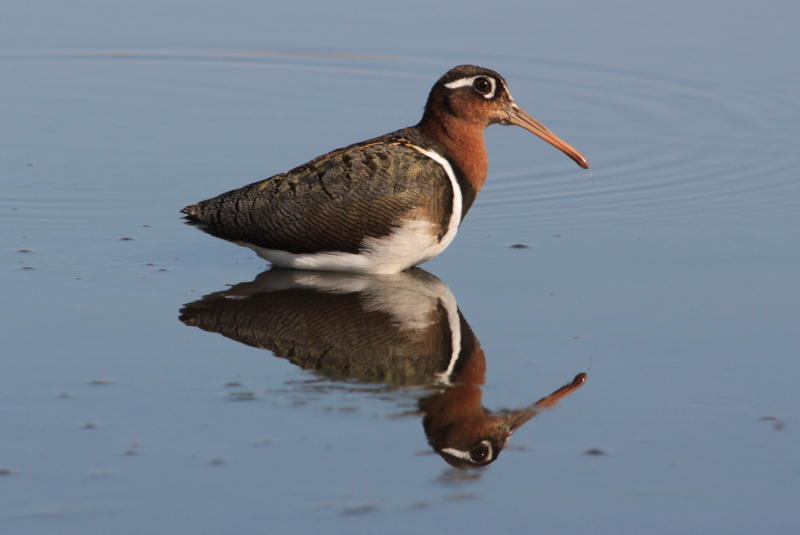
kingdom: Animalia
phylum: Chordata
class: Aves
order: Charadriiformes
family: Rostratulidae
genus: Rostratula
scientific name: Rostratula benghalensis
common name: Greater painted-snipe
